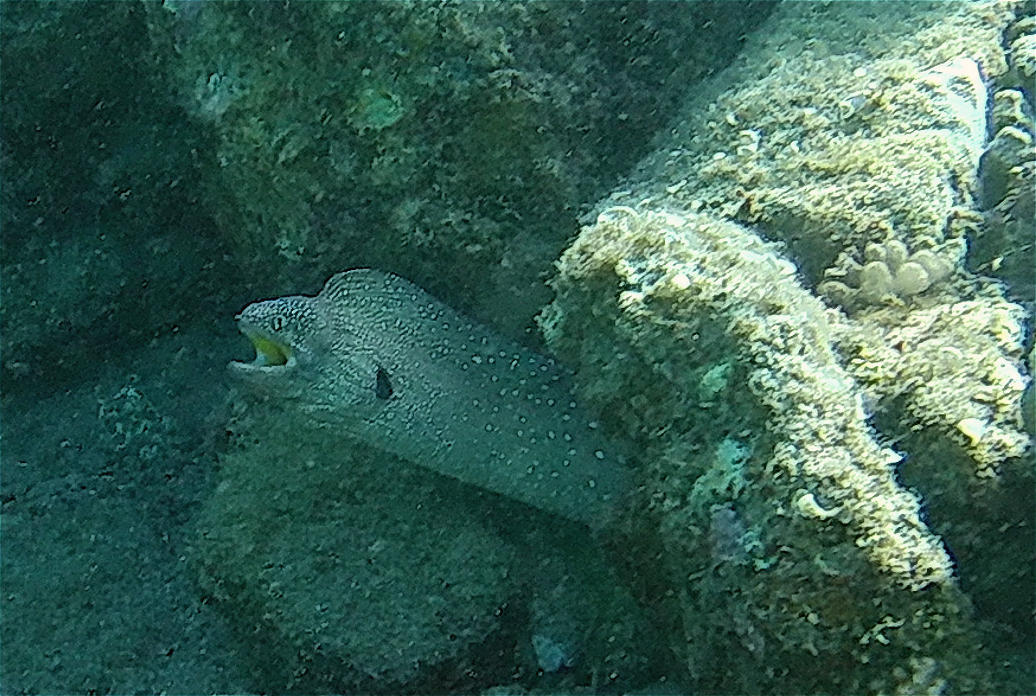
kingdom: Animalia
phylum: Chordata
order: Anguilliformes
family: Muraenidae
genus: Gymnothorax
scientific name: Gymnothorax nudivomer
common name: Yellowmouth moray
